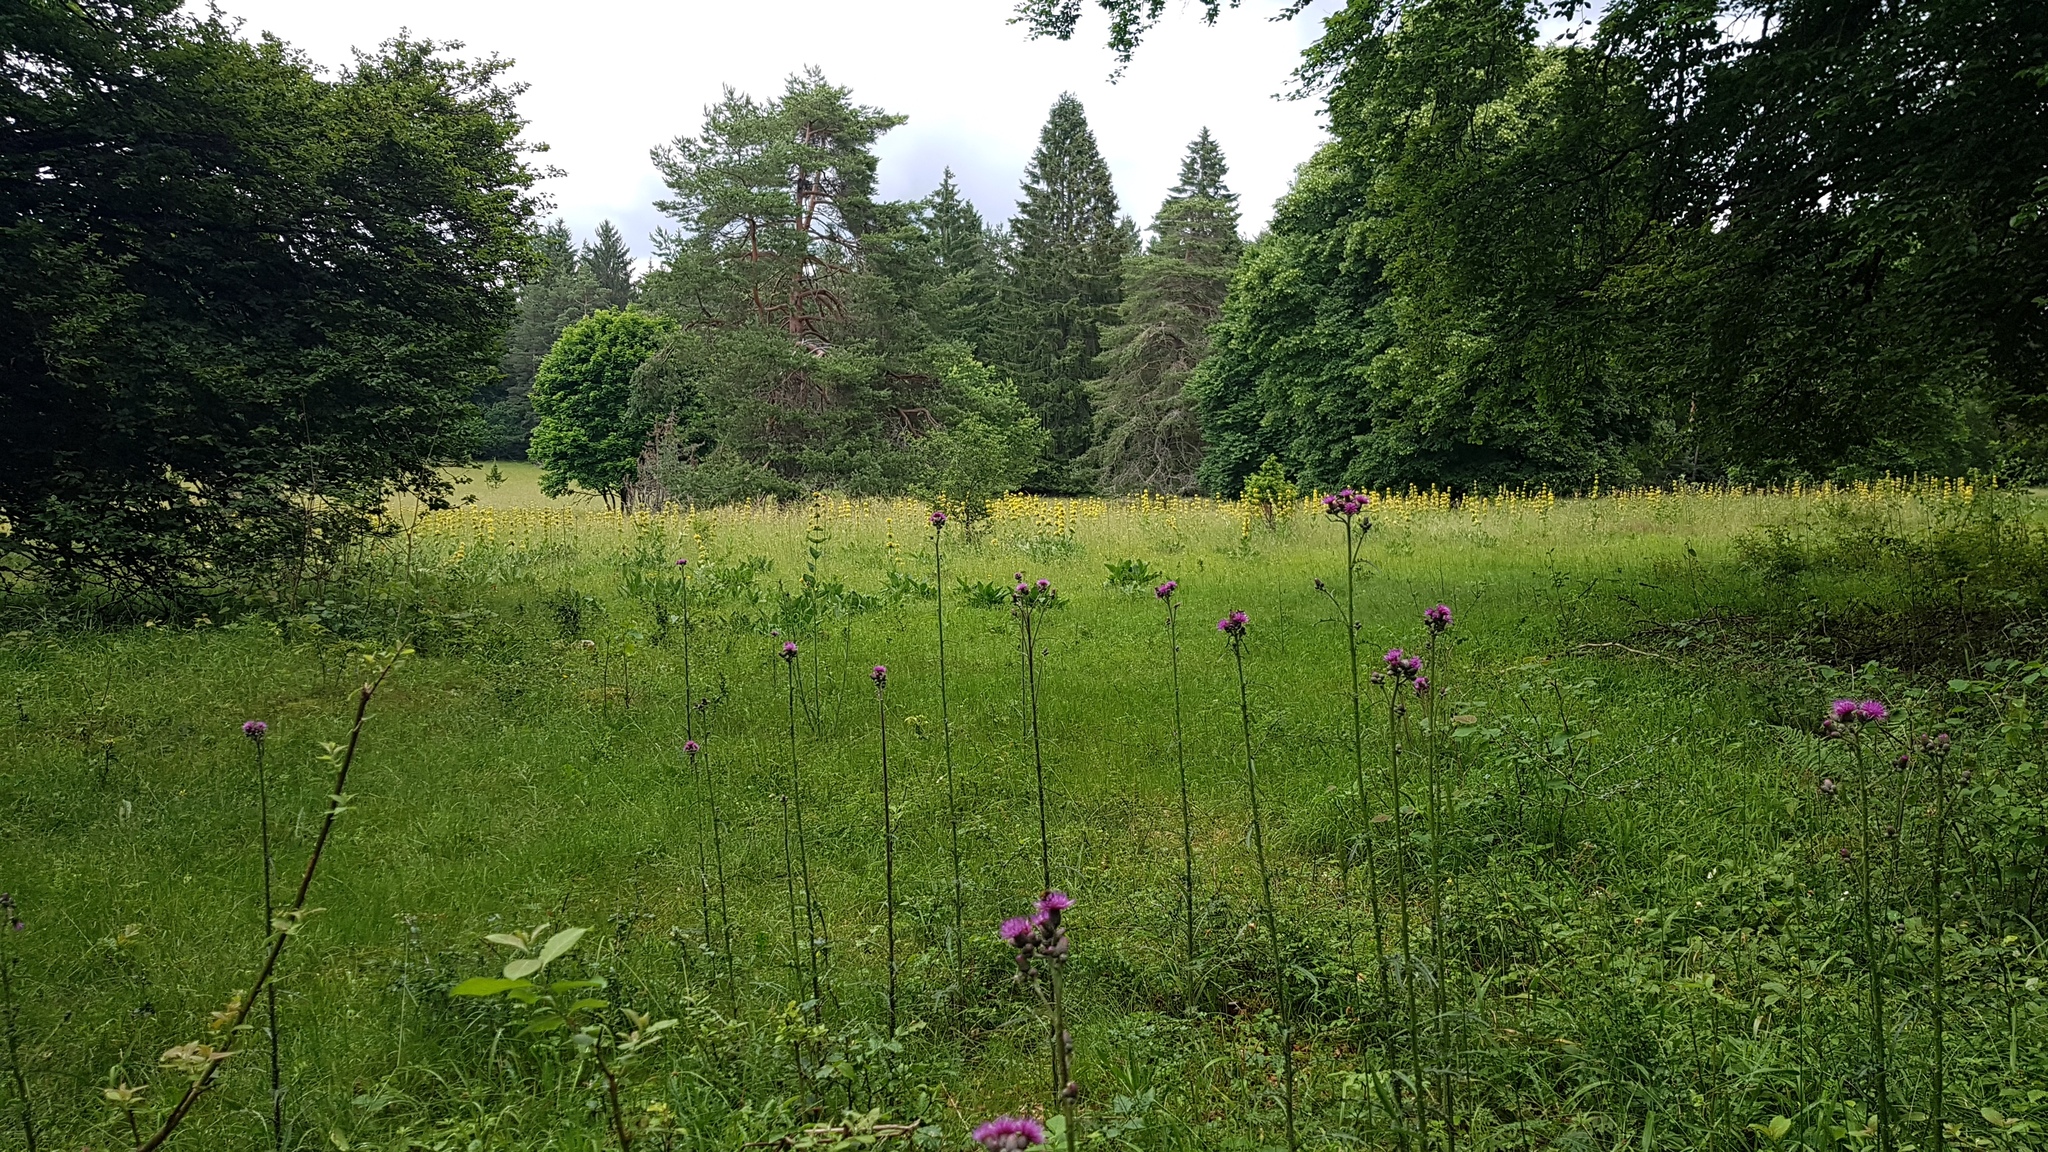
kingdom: Plantae
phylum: Tracheophyta
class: Magnoliopsida
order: Asterales
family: Asteraceae
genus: Cirsium
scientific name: Cirsium palustre
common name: Marsh thistle
